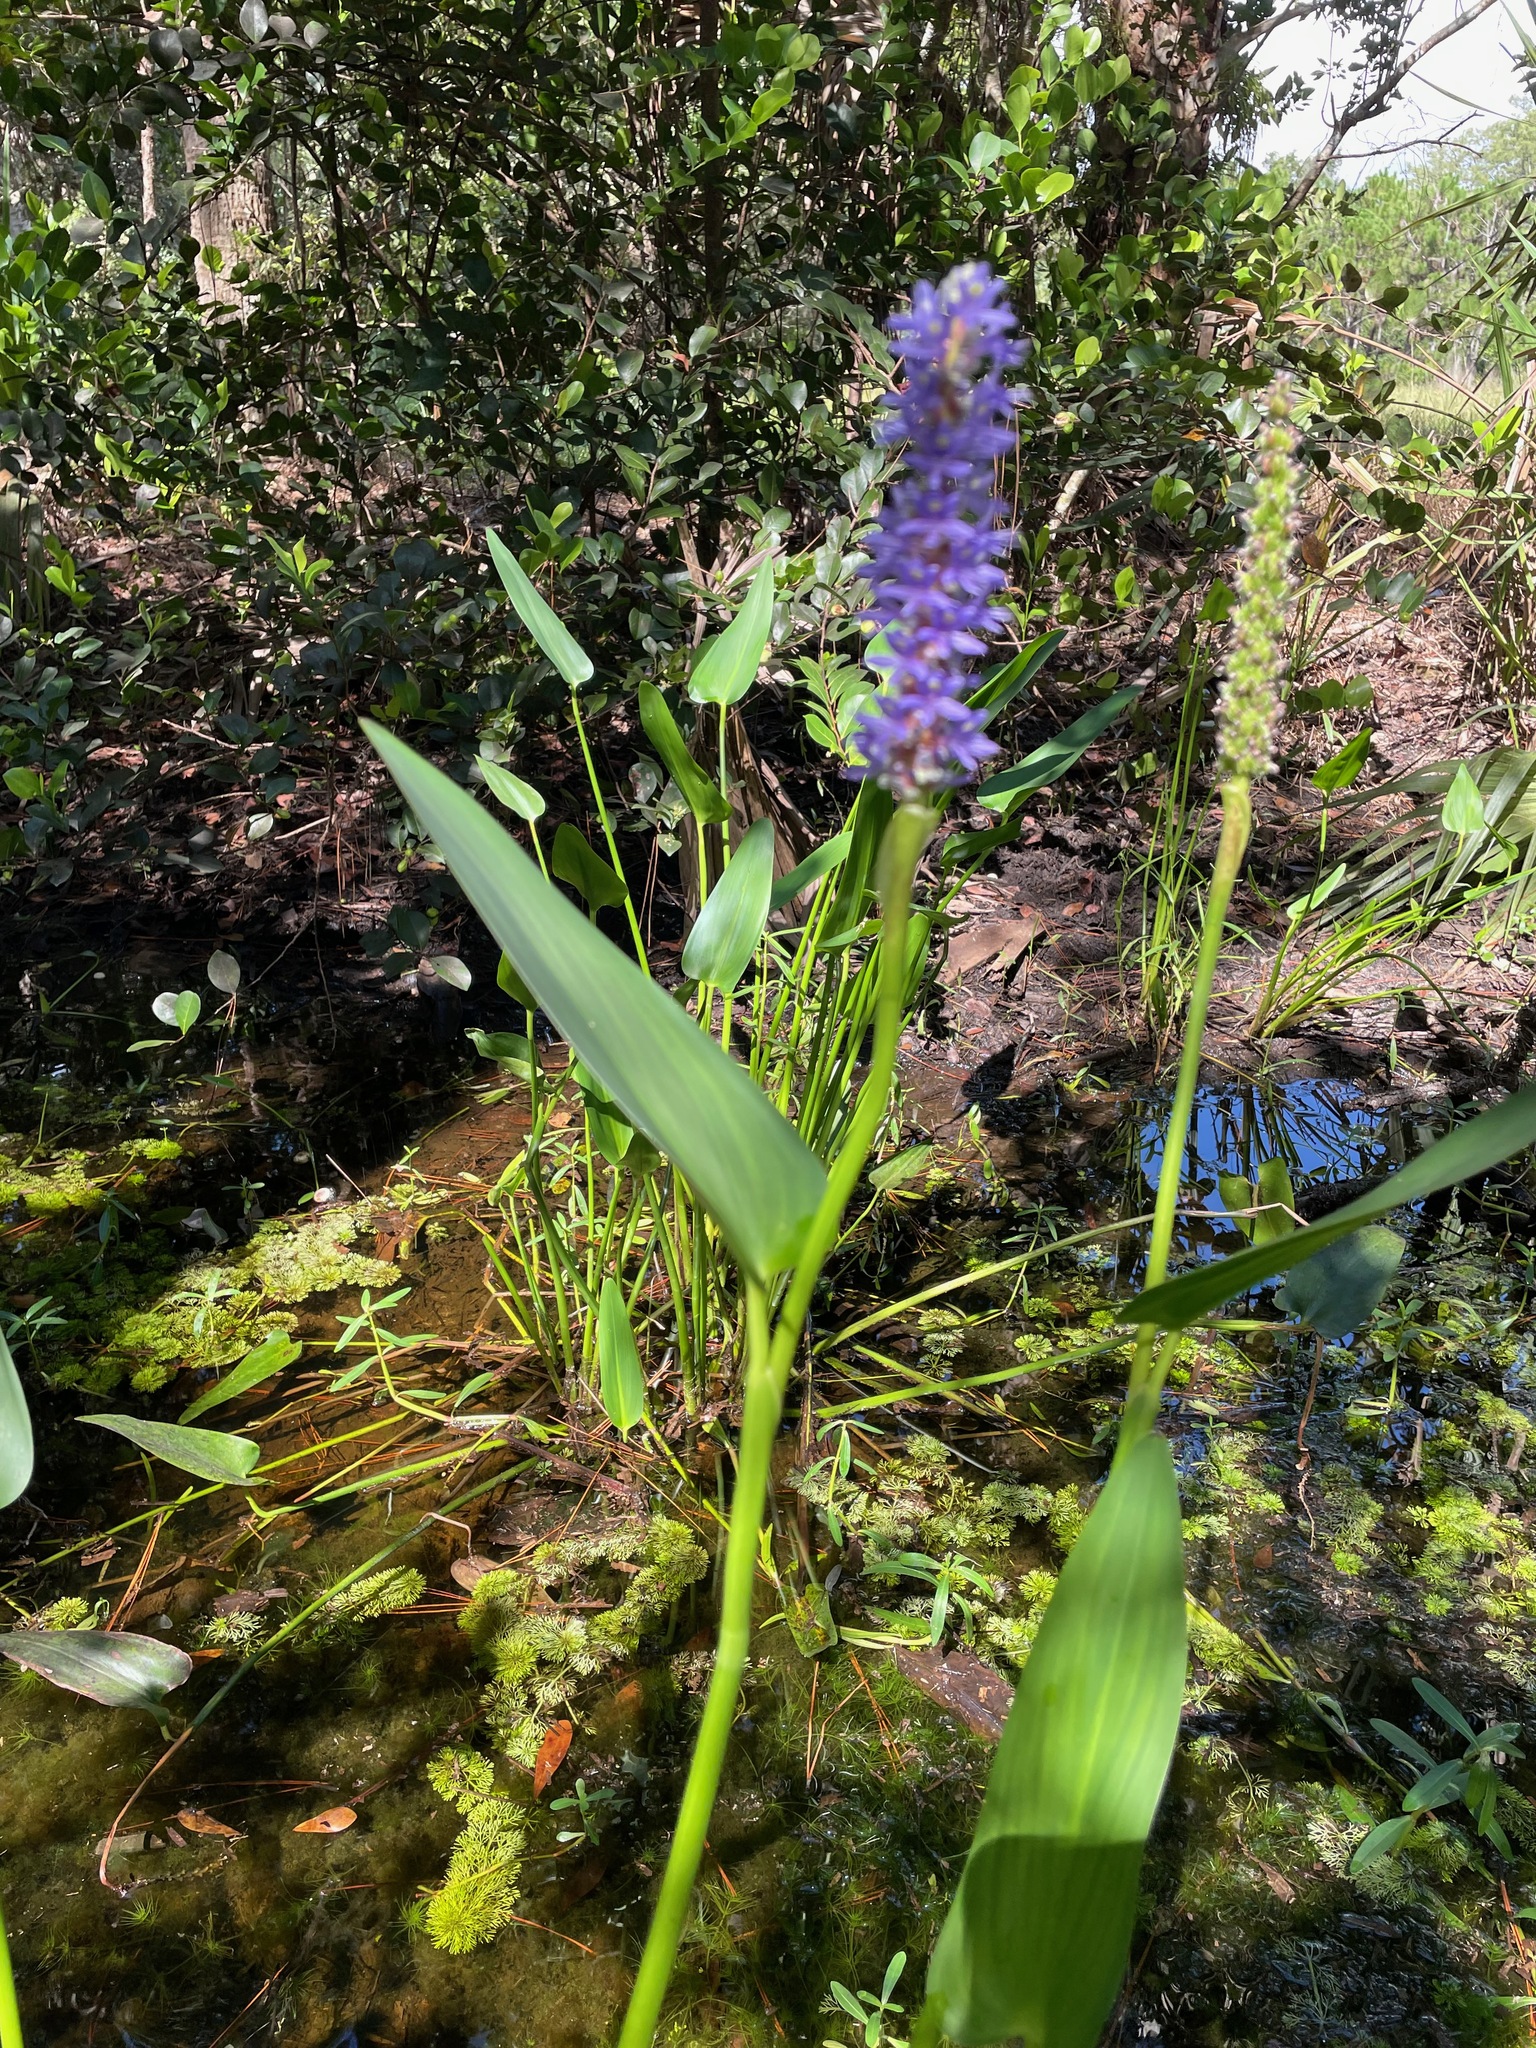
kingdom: Plantae
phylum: Tracheophyta
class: Liliopsida
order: Commelinales
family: Pontederiaceae
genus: Pontederia
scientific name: Pontederia cordata
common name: Pickerelweed
